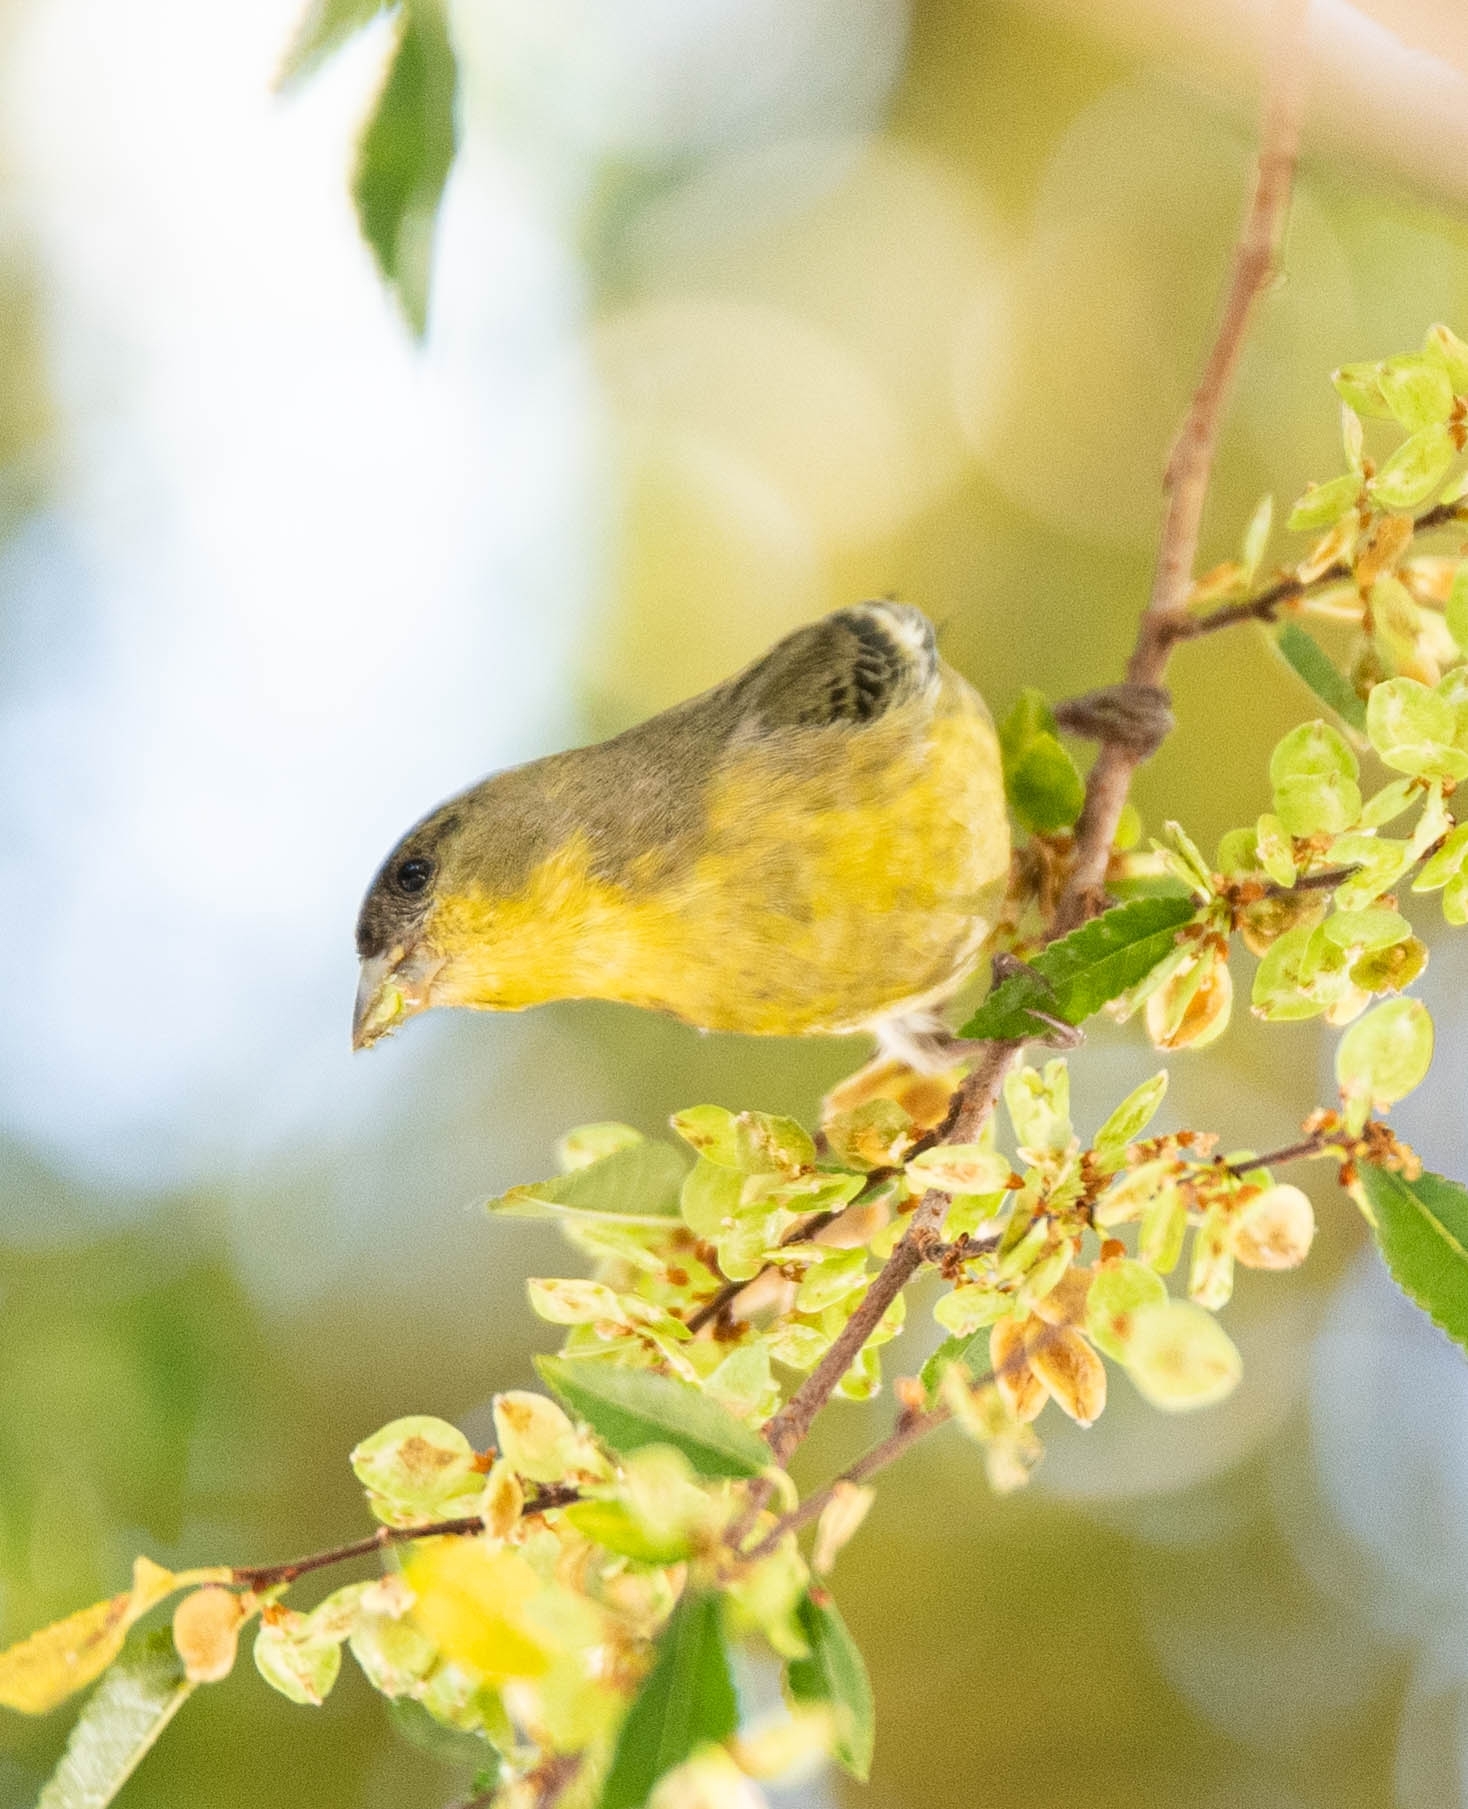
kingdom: Animalia
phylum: Chordata
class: Aves
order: Passeriformes
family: Fringillidae
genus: Spinus
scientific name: Spinus psaltria
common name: Lesser goldfinch
